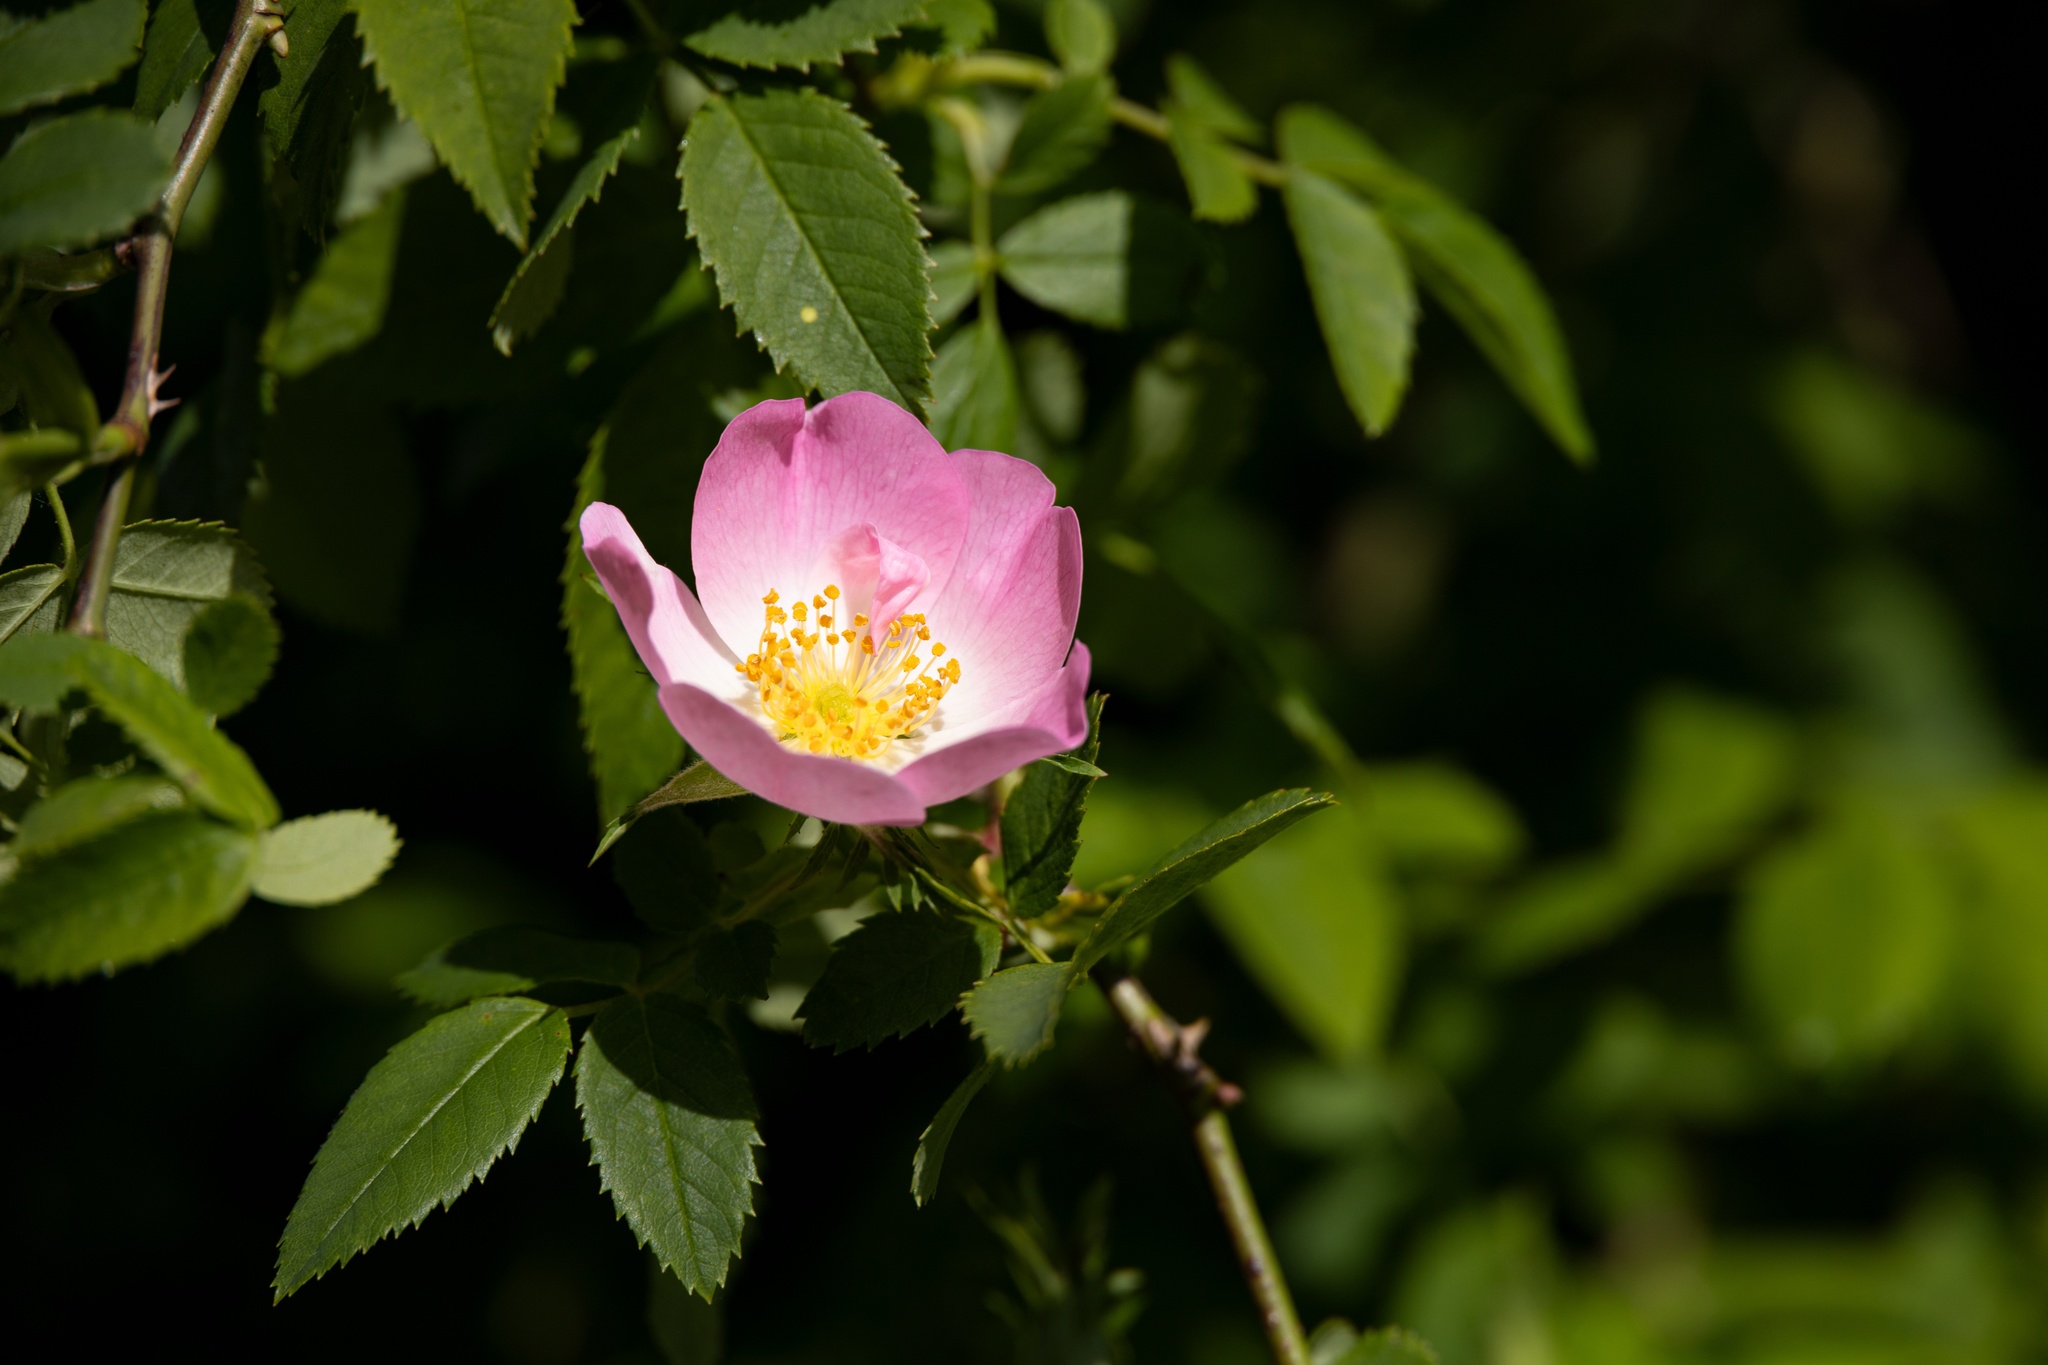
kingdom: Plantae
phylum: Tracheophyta
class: Magnoliopsida
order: Rosales
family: Rosaceae
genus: Rosa
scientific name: Rosa canina
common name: Dog rose
